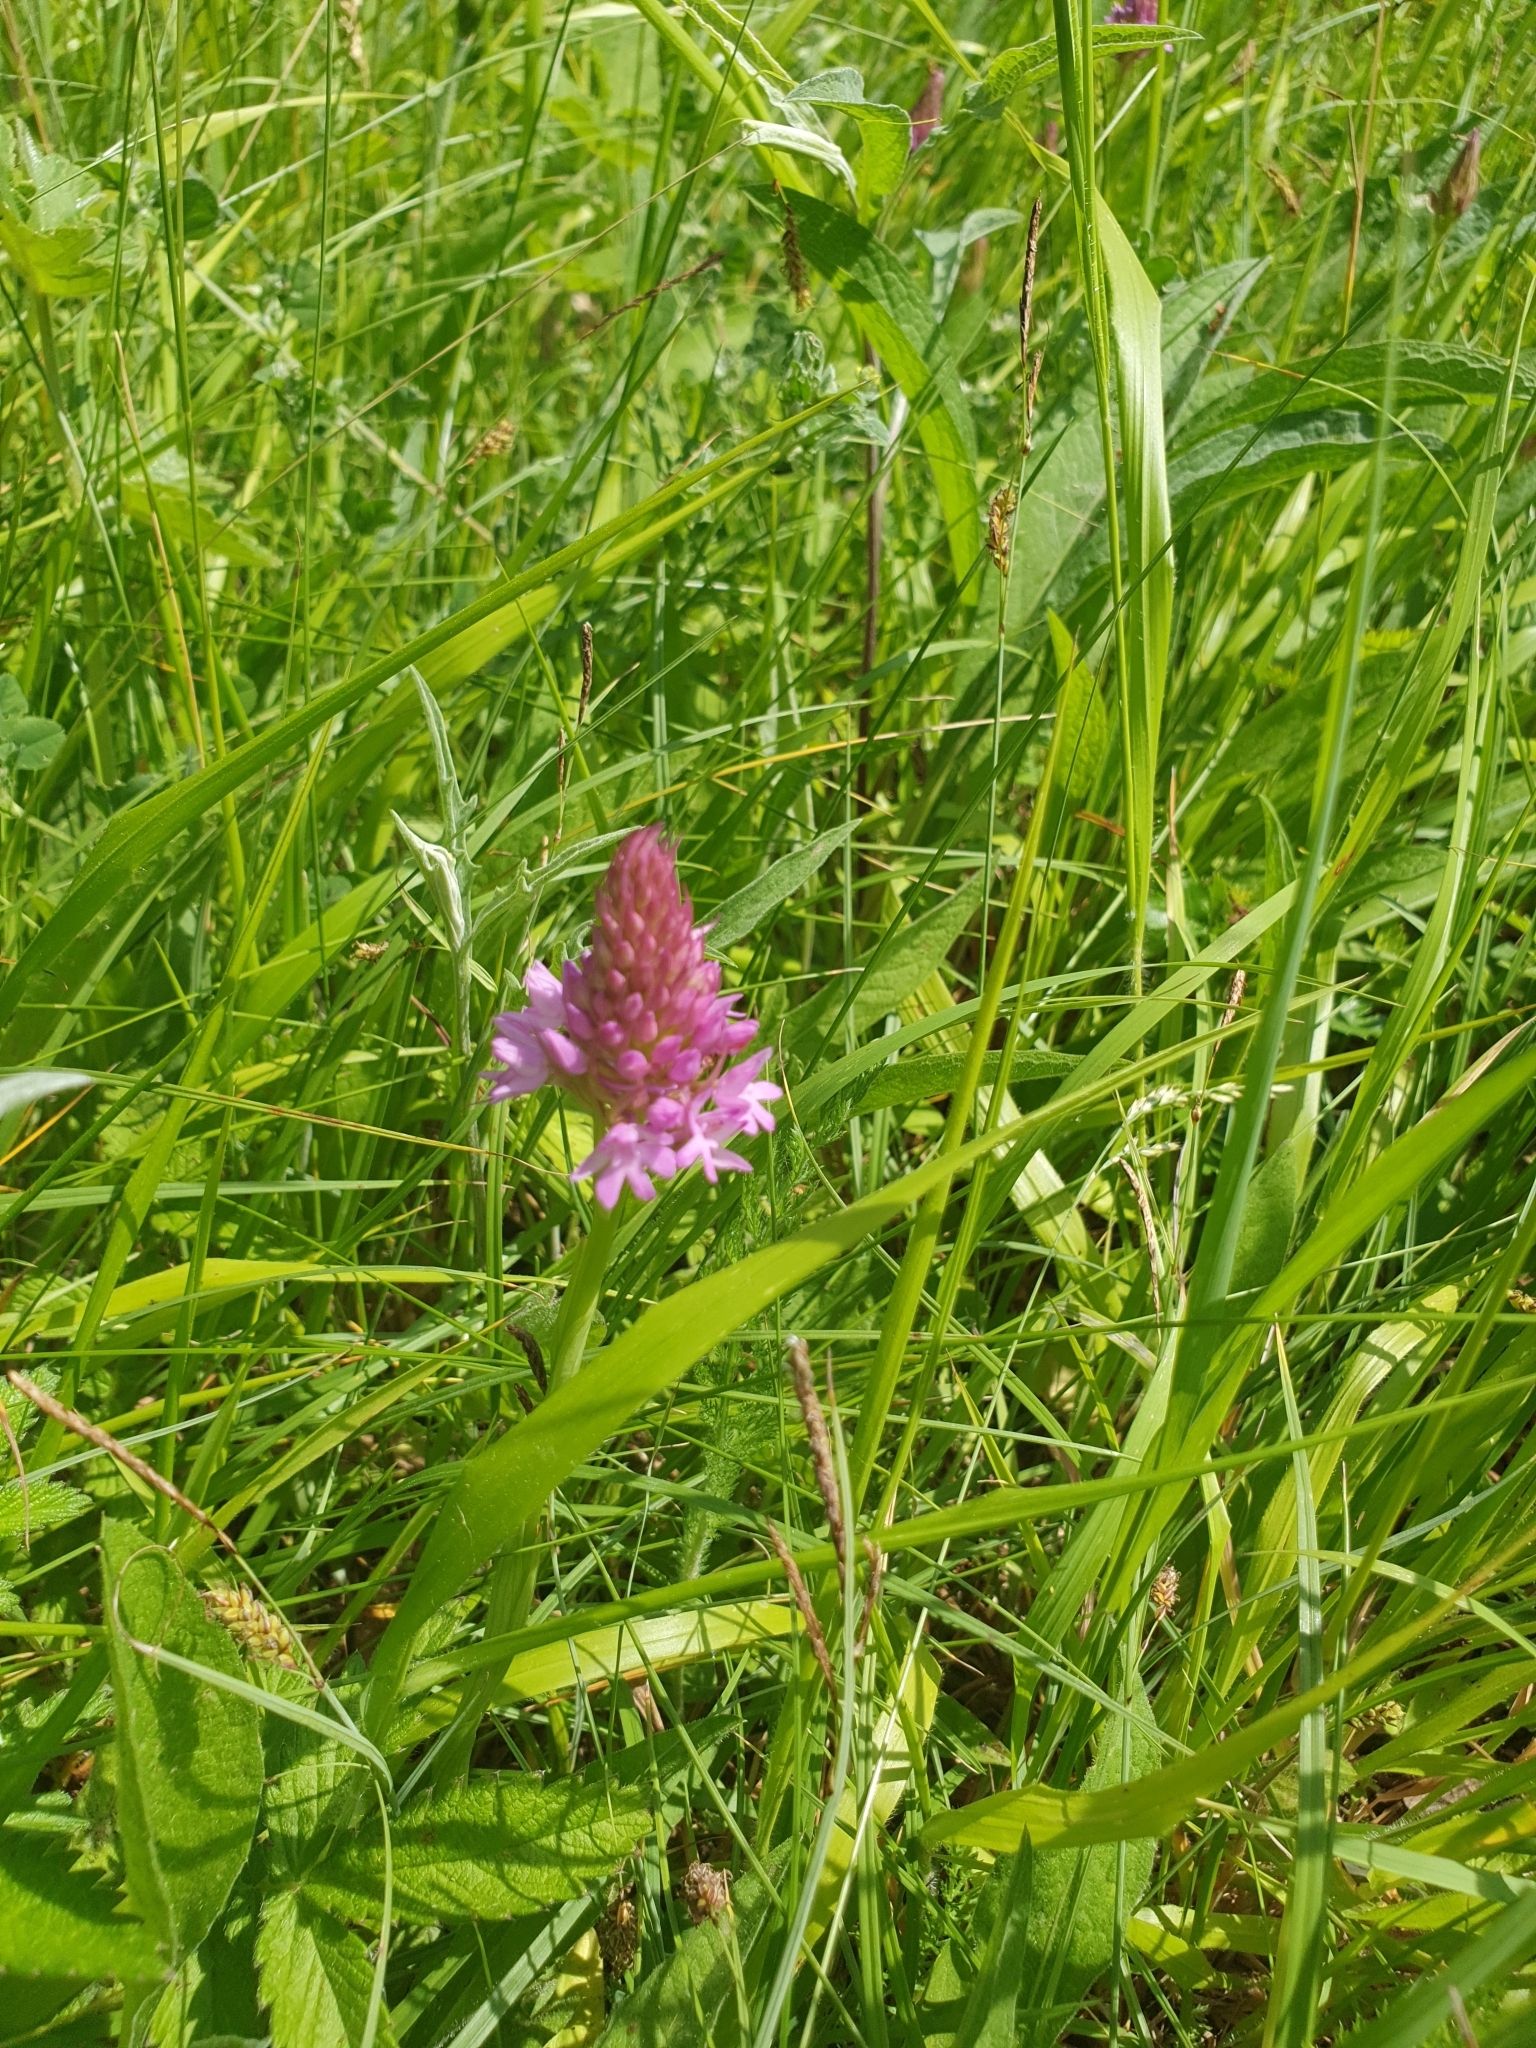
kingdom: Plantae
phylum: Tracheophyta
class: Liliopsida
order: Asparagales
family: Orchidaceae
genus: Anacamptis
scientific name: Anacamptis pyramidalis
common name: Pyramidal orchid
